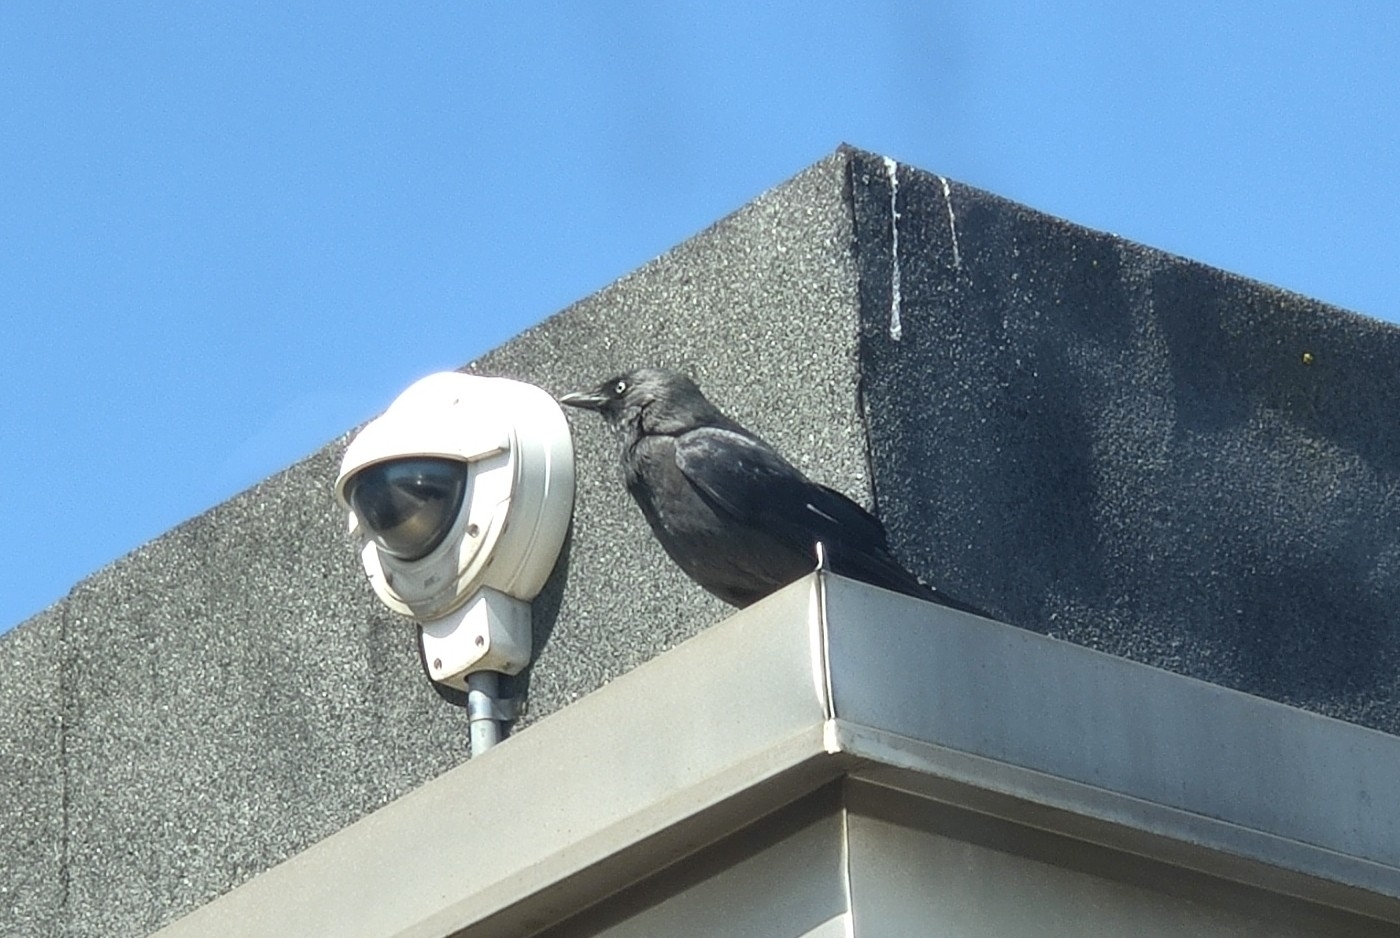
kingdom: Animalia
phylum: Chordata
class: Aves
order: Passeriformes
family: Corvidae
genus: Coloeus
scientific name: Coloeus monedula
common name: Western jackdaw
